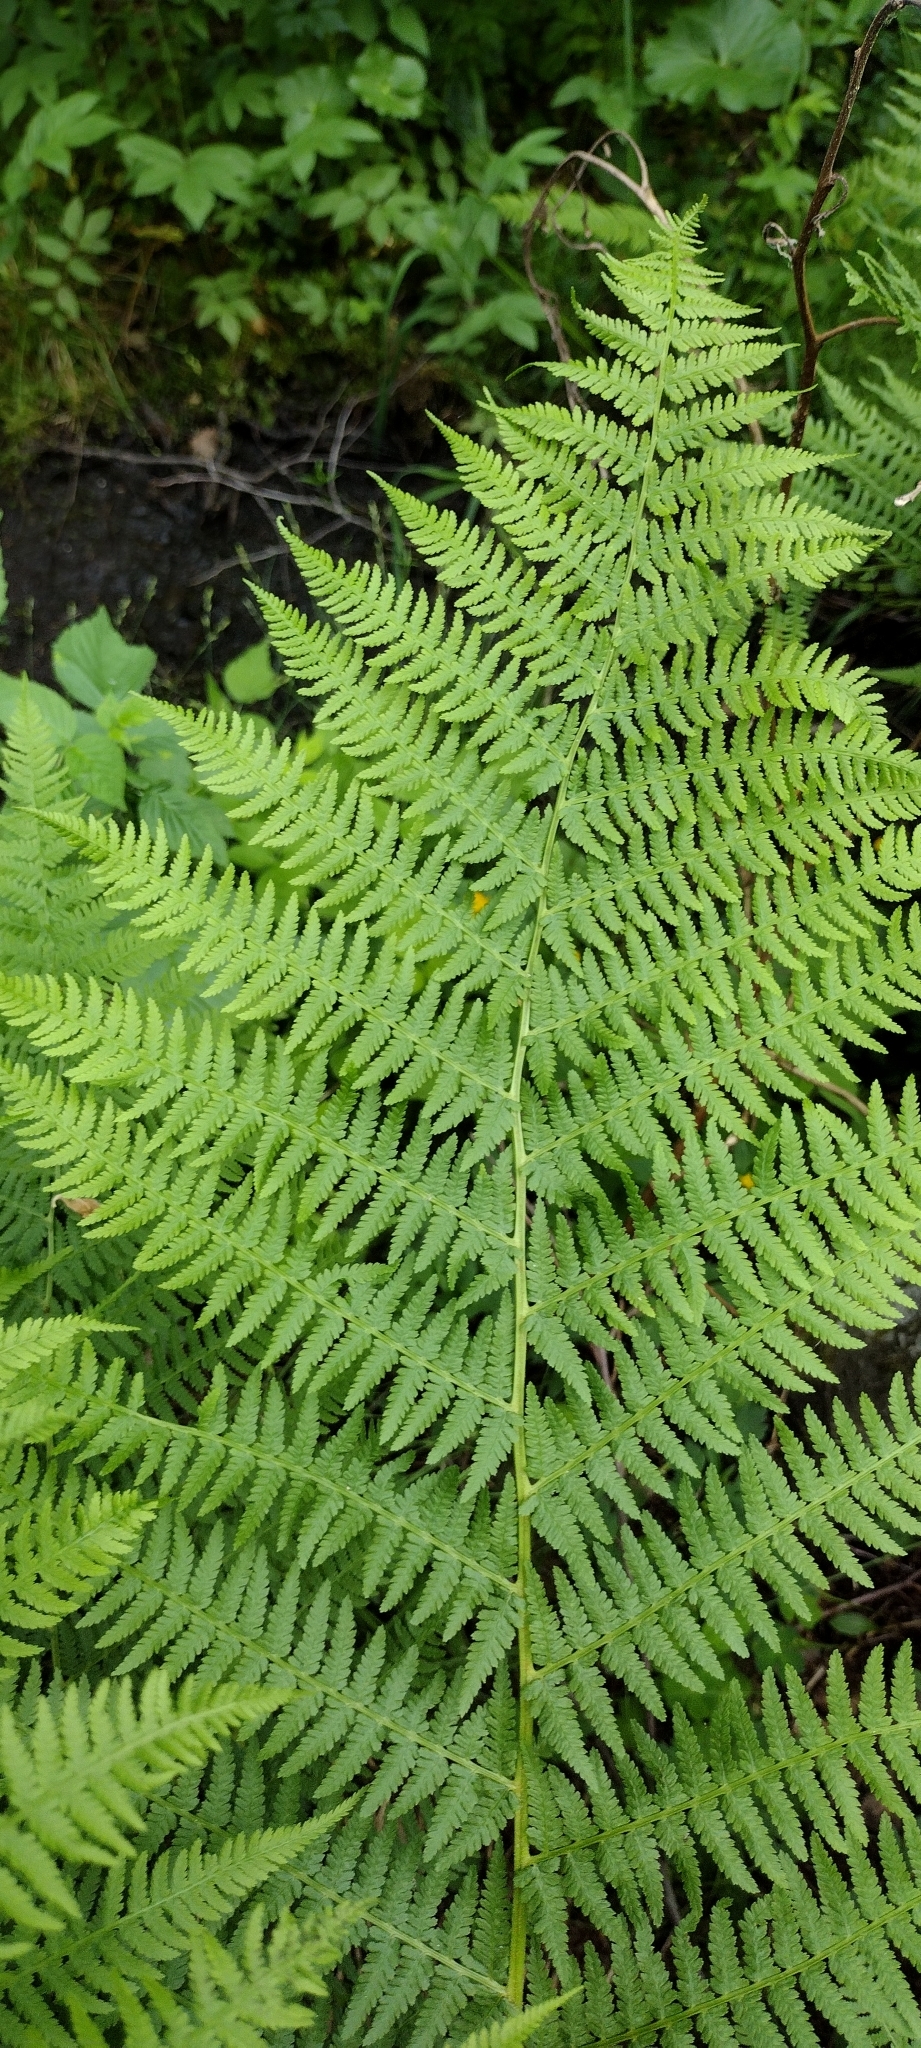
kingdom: Plantae
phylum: Tracheophyta
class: Polypodiopsida
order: Polypodiales
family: Athyriaceae
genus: Athyrium
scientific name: Athyrium filix-femina
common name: Lady fern
